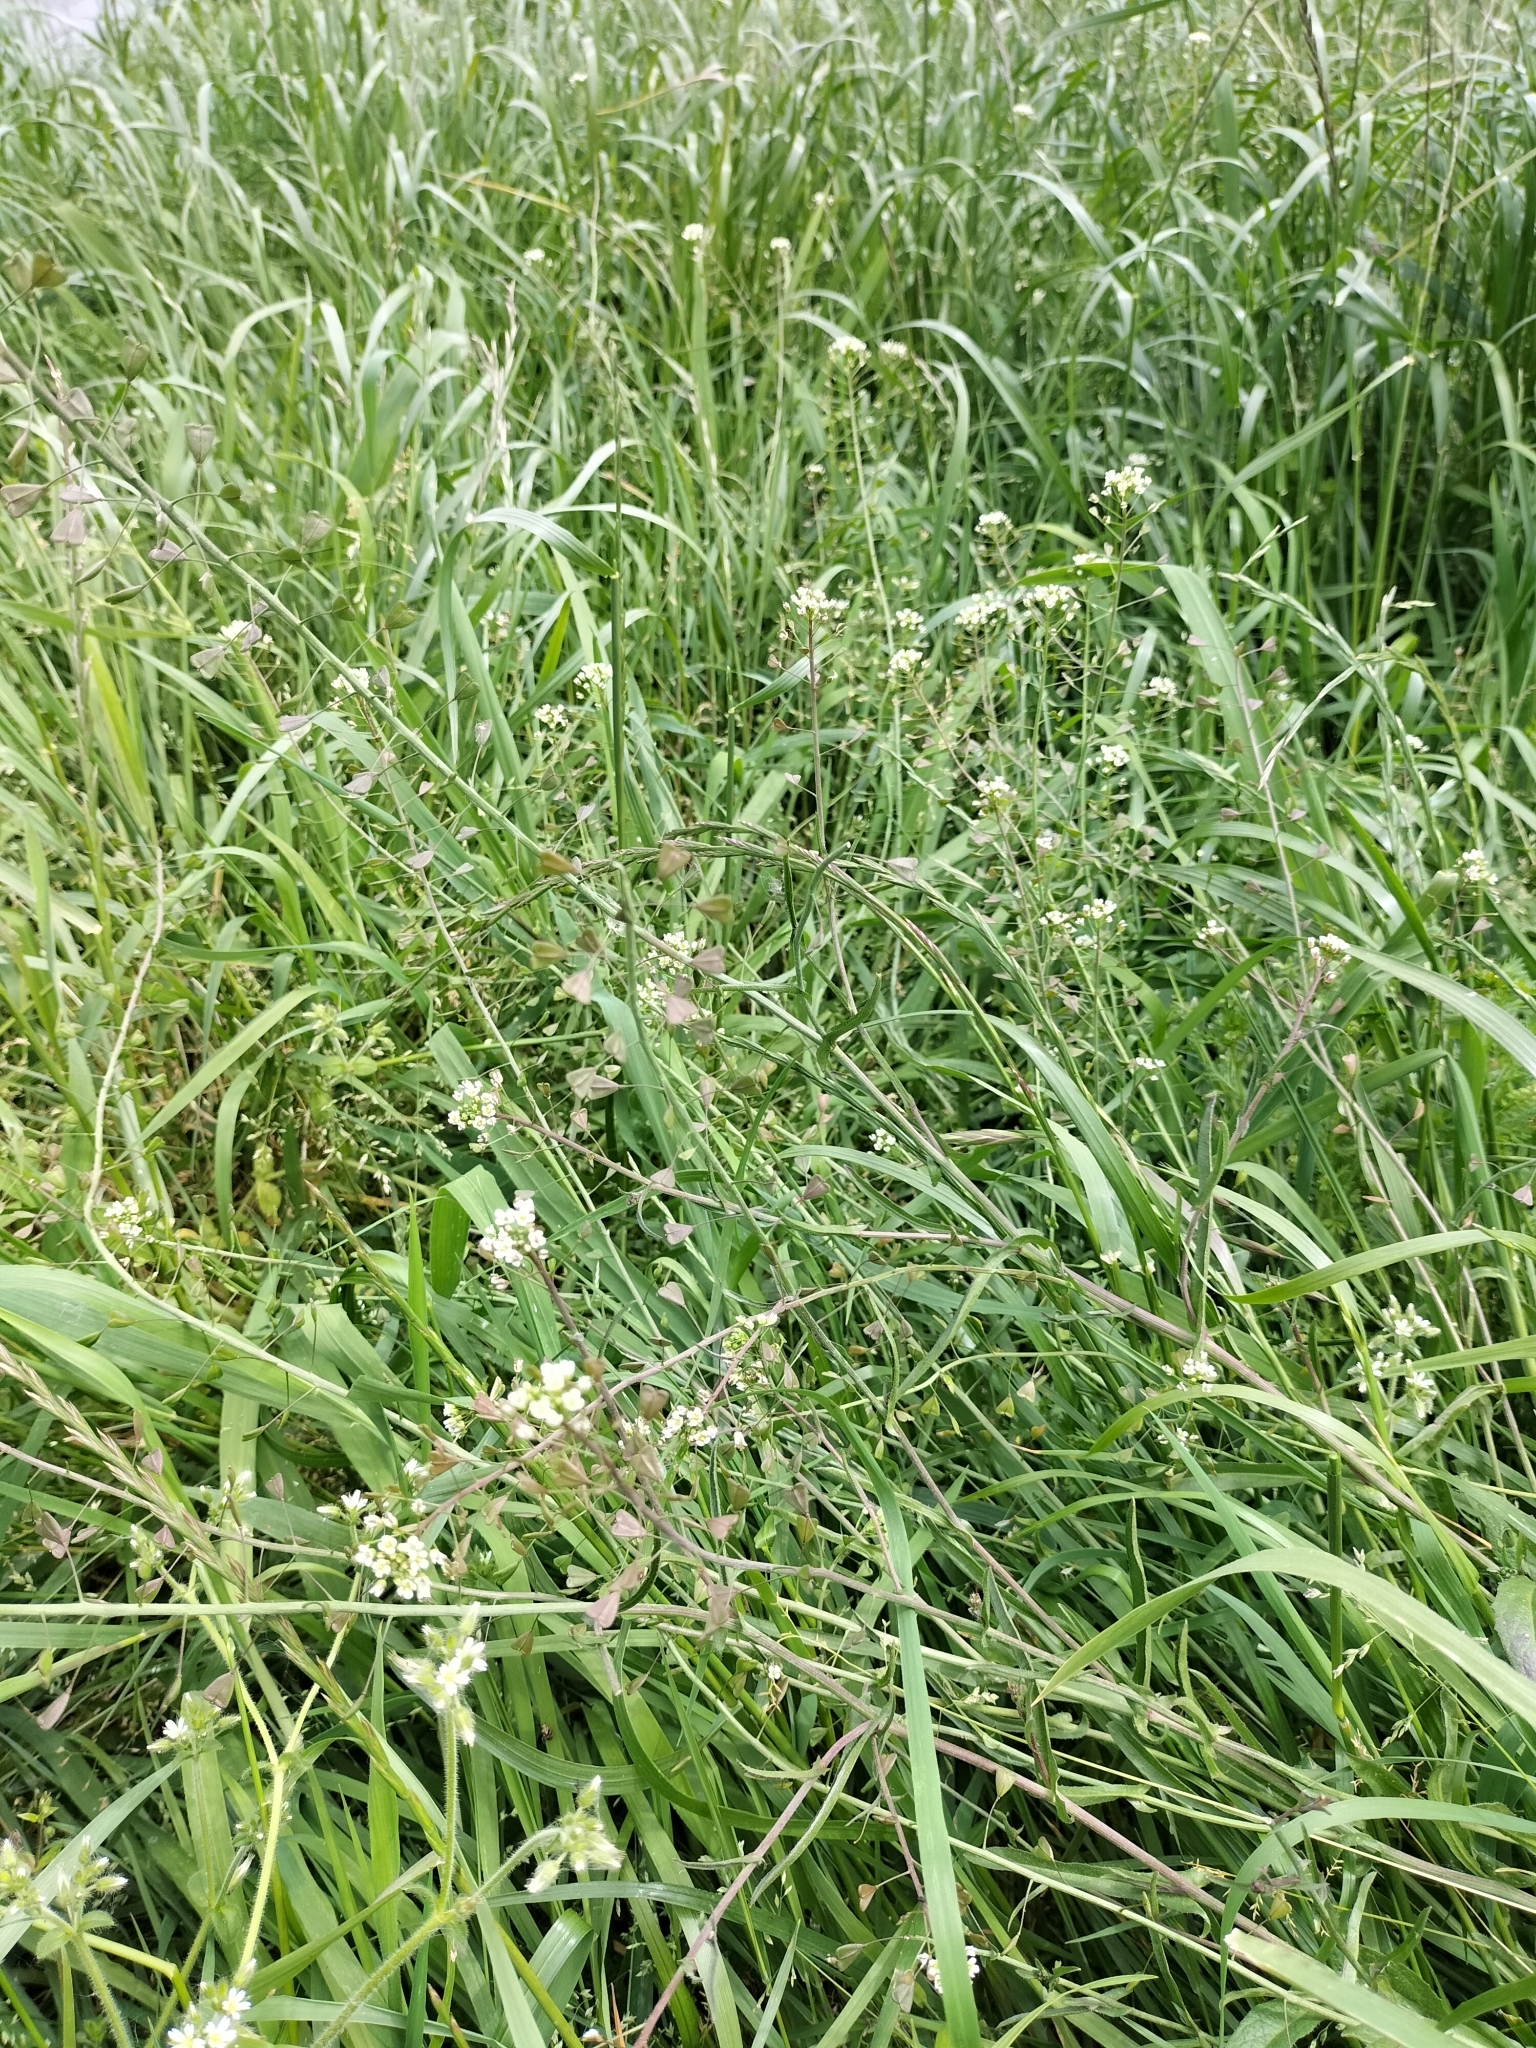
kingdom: Plantae
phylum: Tracheophyta
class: Magnoliopsida
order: Brassicales
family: Brassicaceae
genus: Capsella
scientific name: Capsella bursa-pastoris
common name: Shepherd's purse
